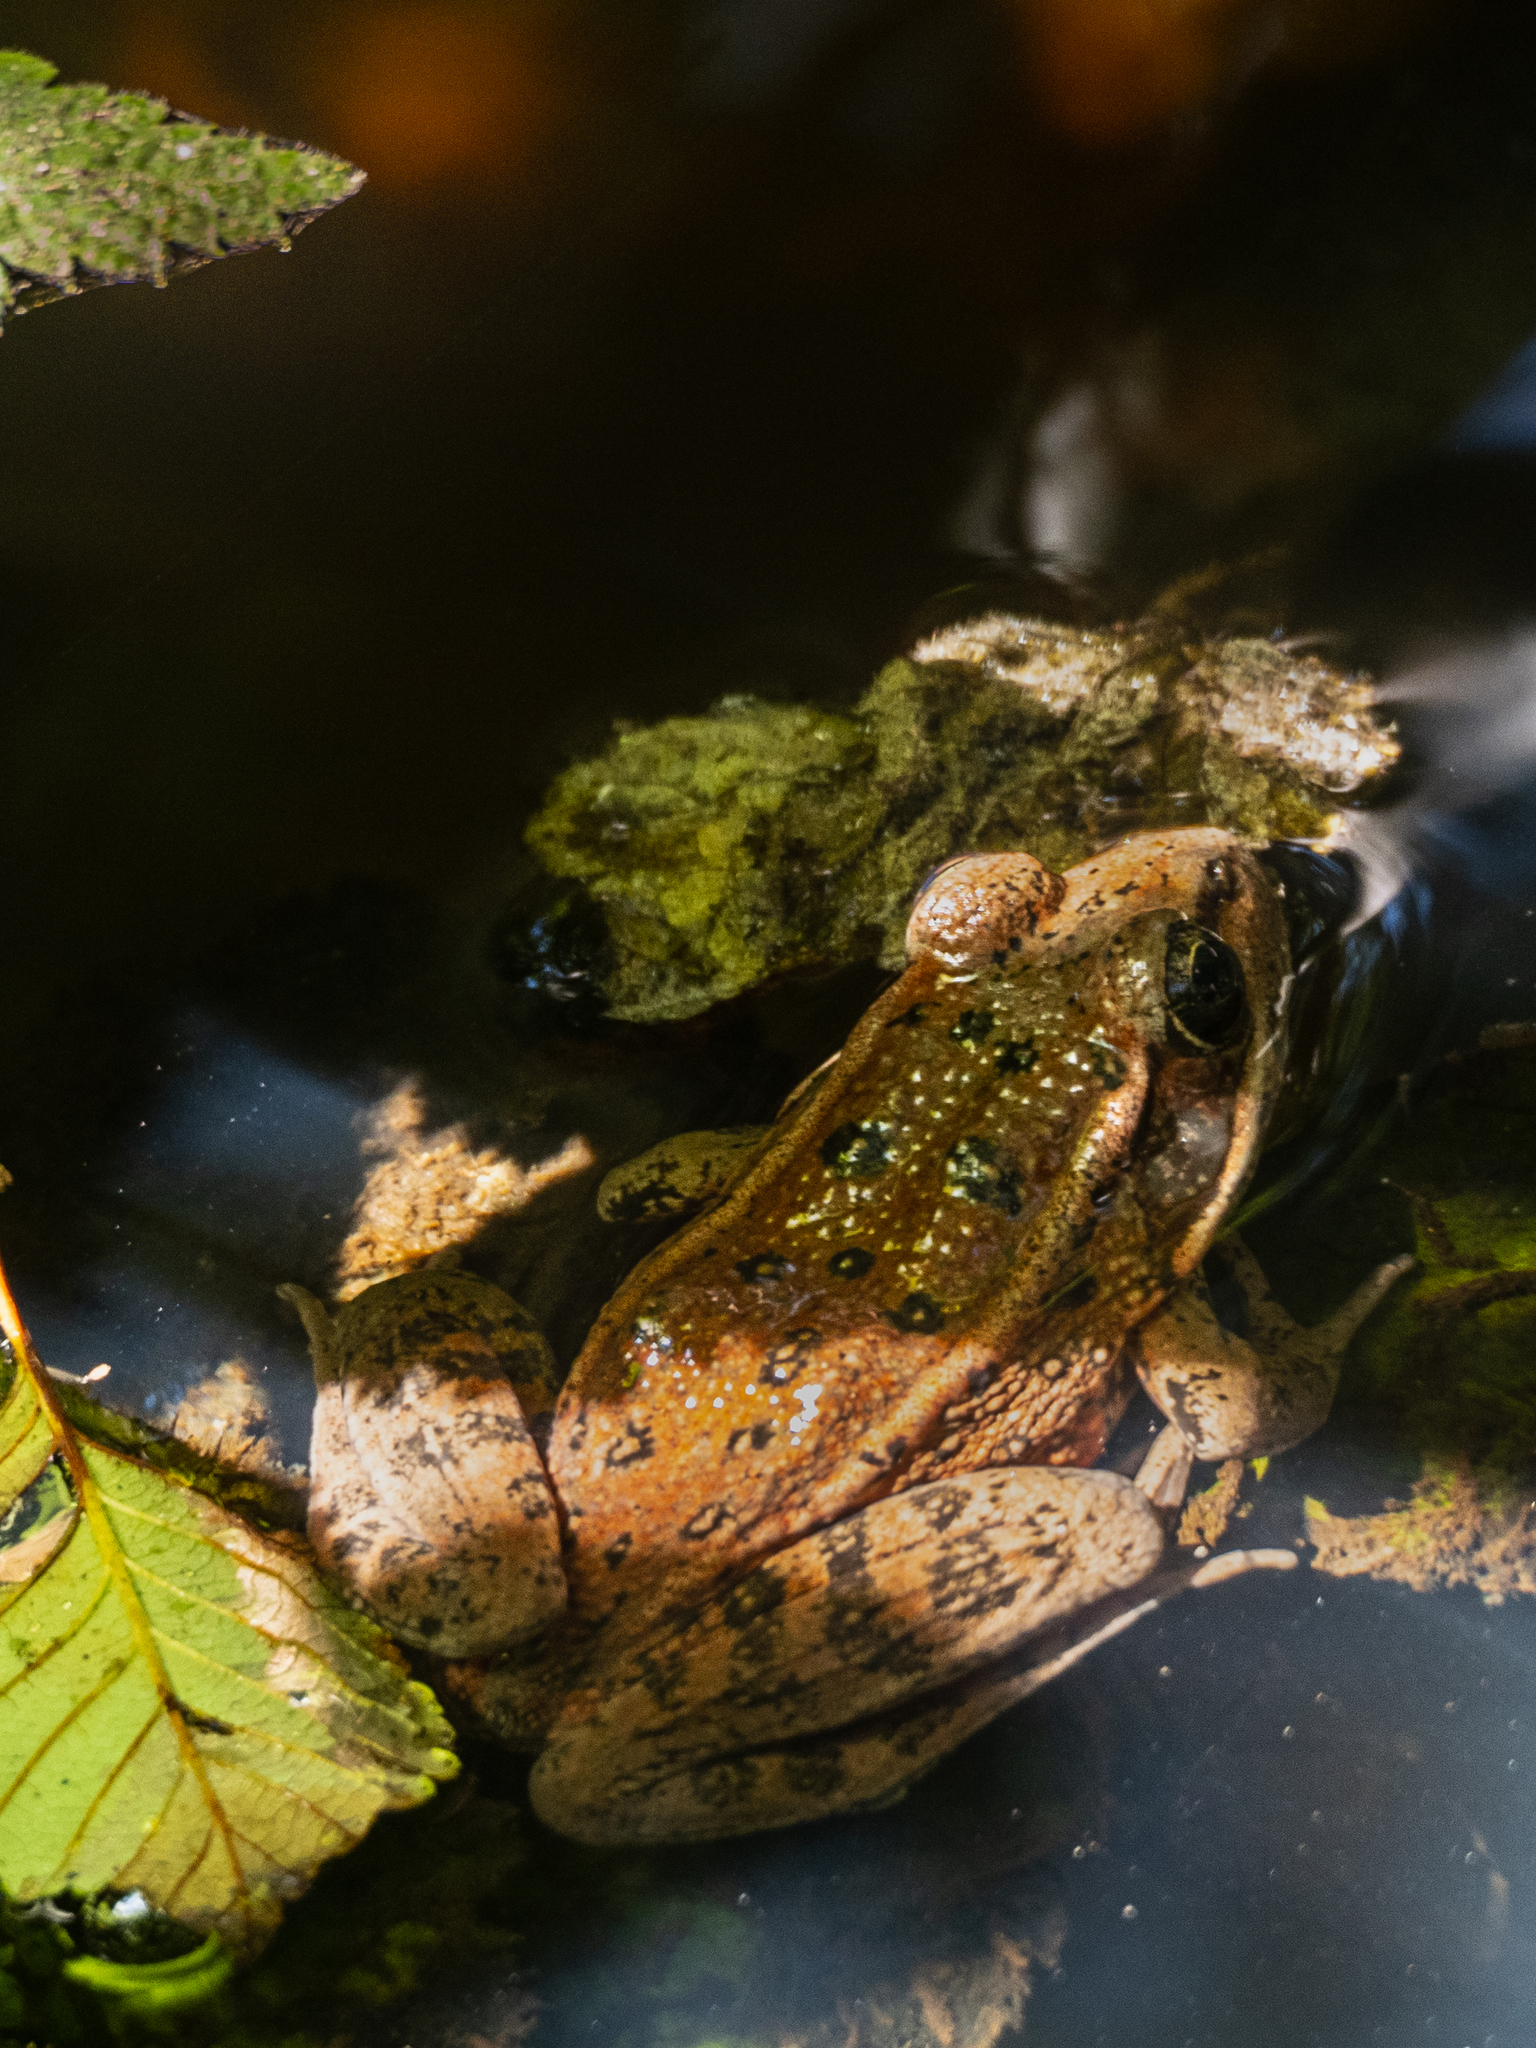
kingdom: Animalia
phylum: Chordata
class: Amphibia
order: Anura
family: Ranidae
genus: Rana
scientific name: Rana draytonii
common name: California red-legged frog
